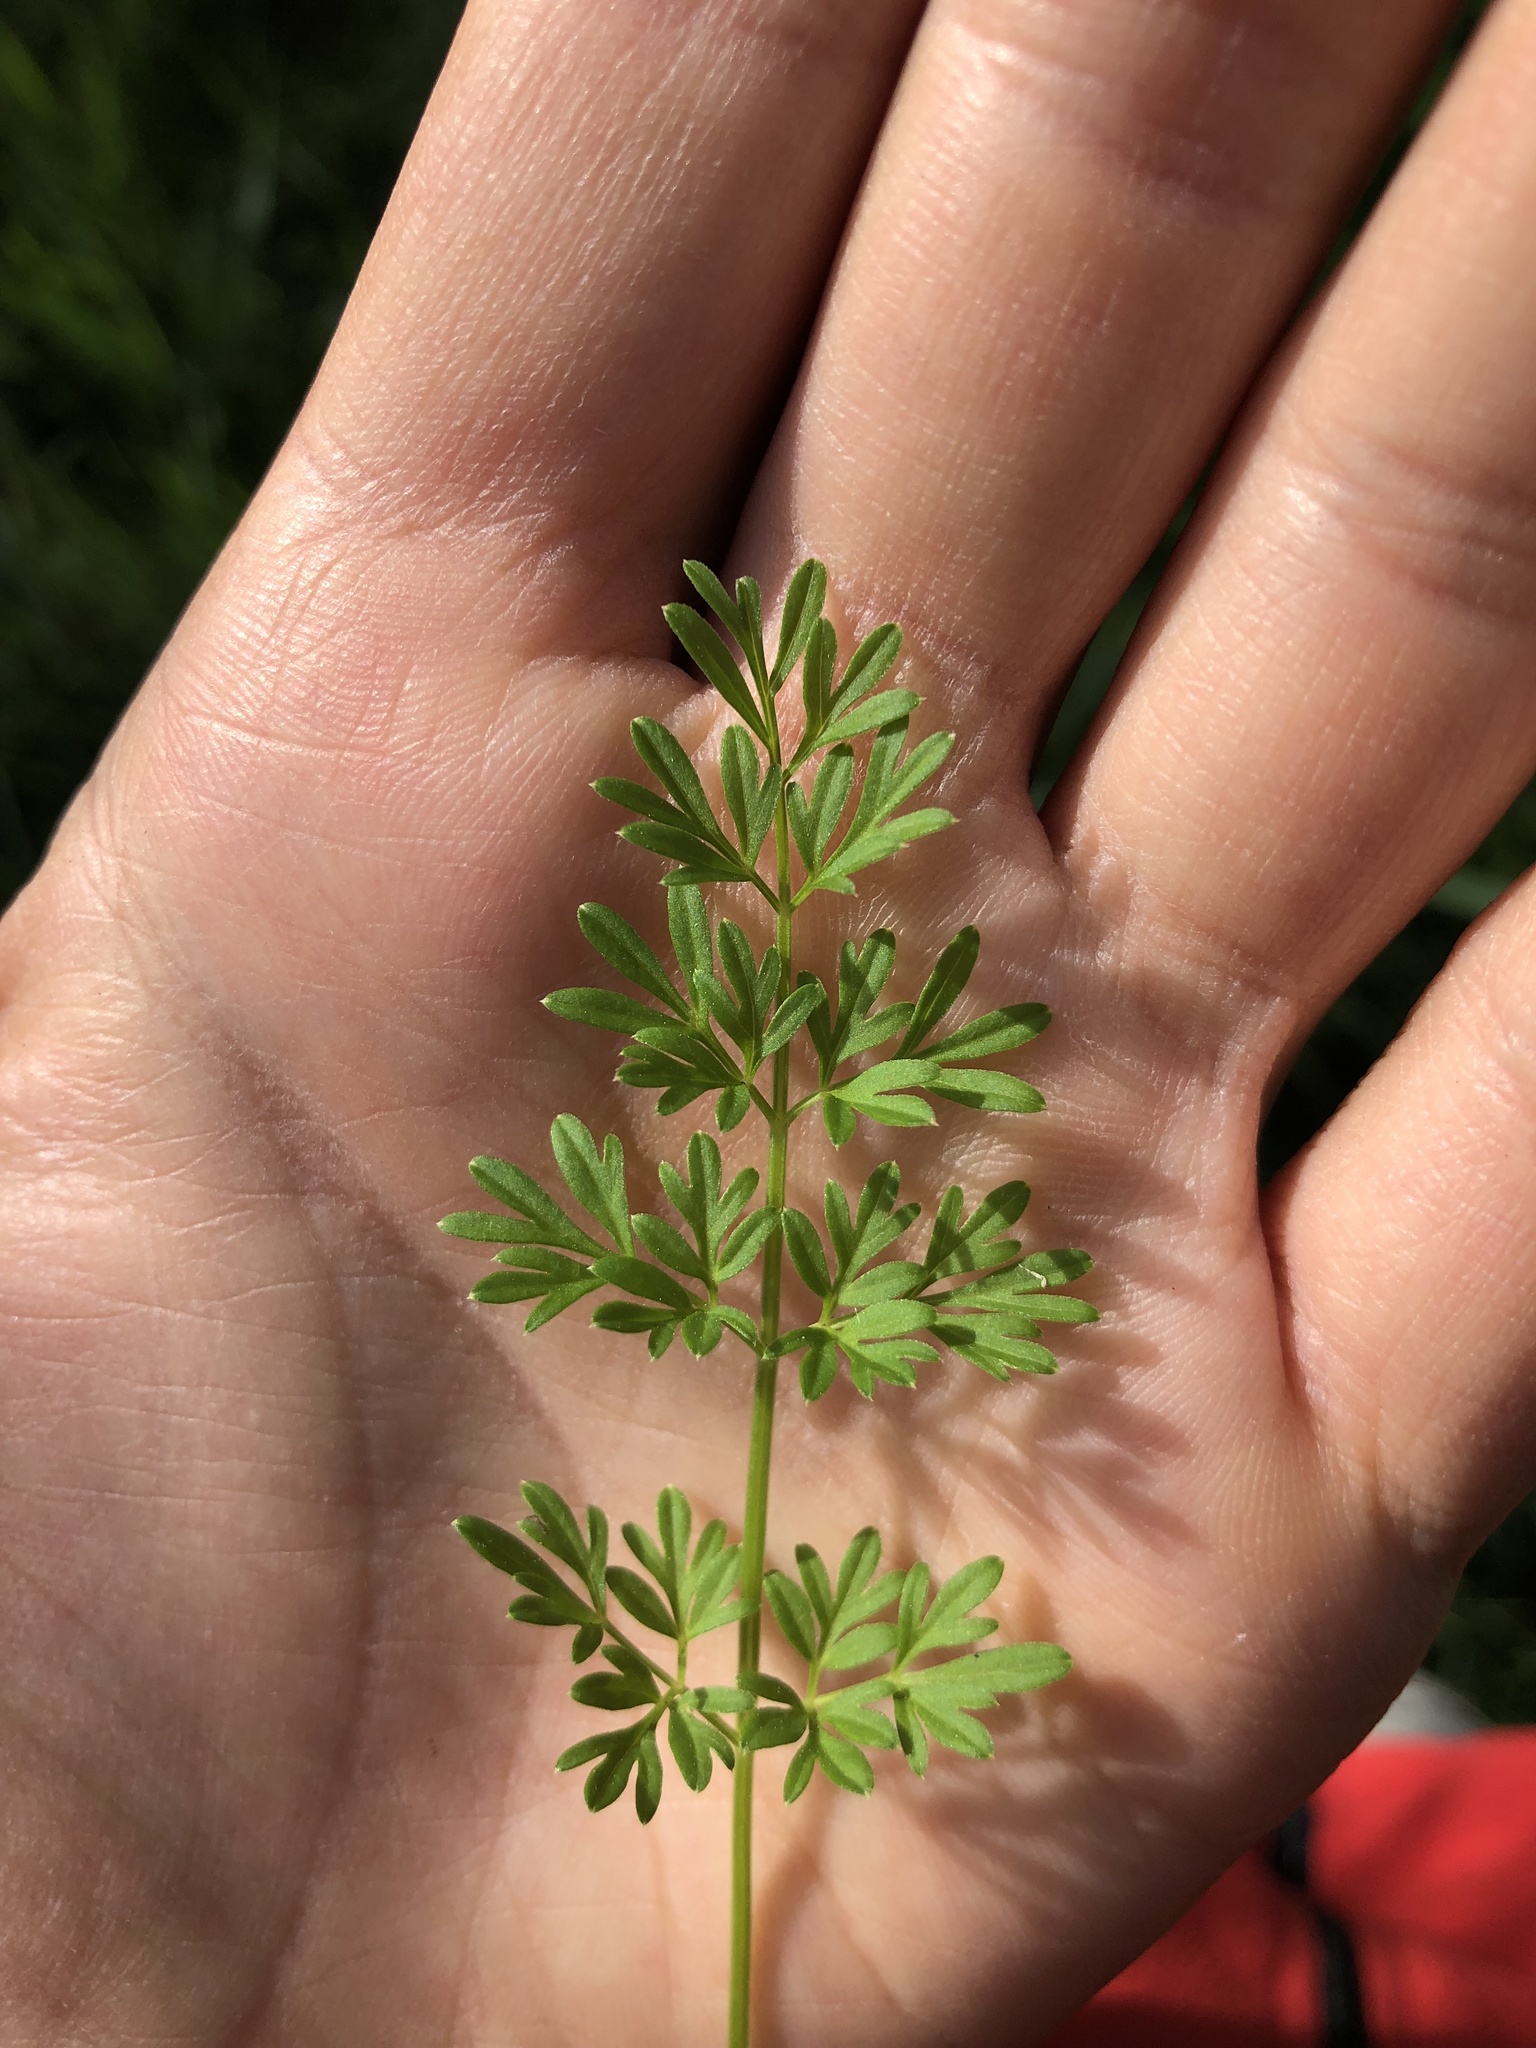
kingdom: Plantae
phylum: Tracheophyta
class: Magnoliopsida
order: Apiales
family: Apiaceae
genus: Selinum
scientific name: Selinum carvifolia
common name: Cambridge milk-parsley
